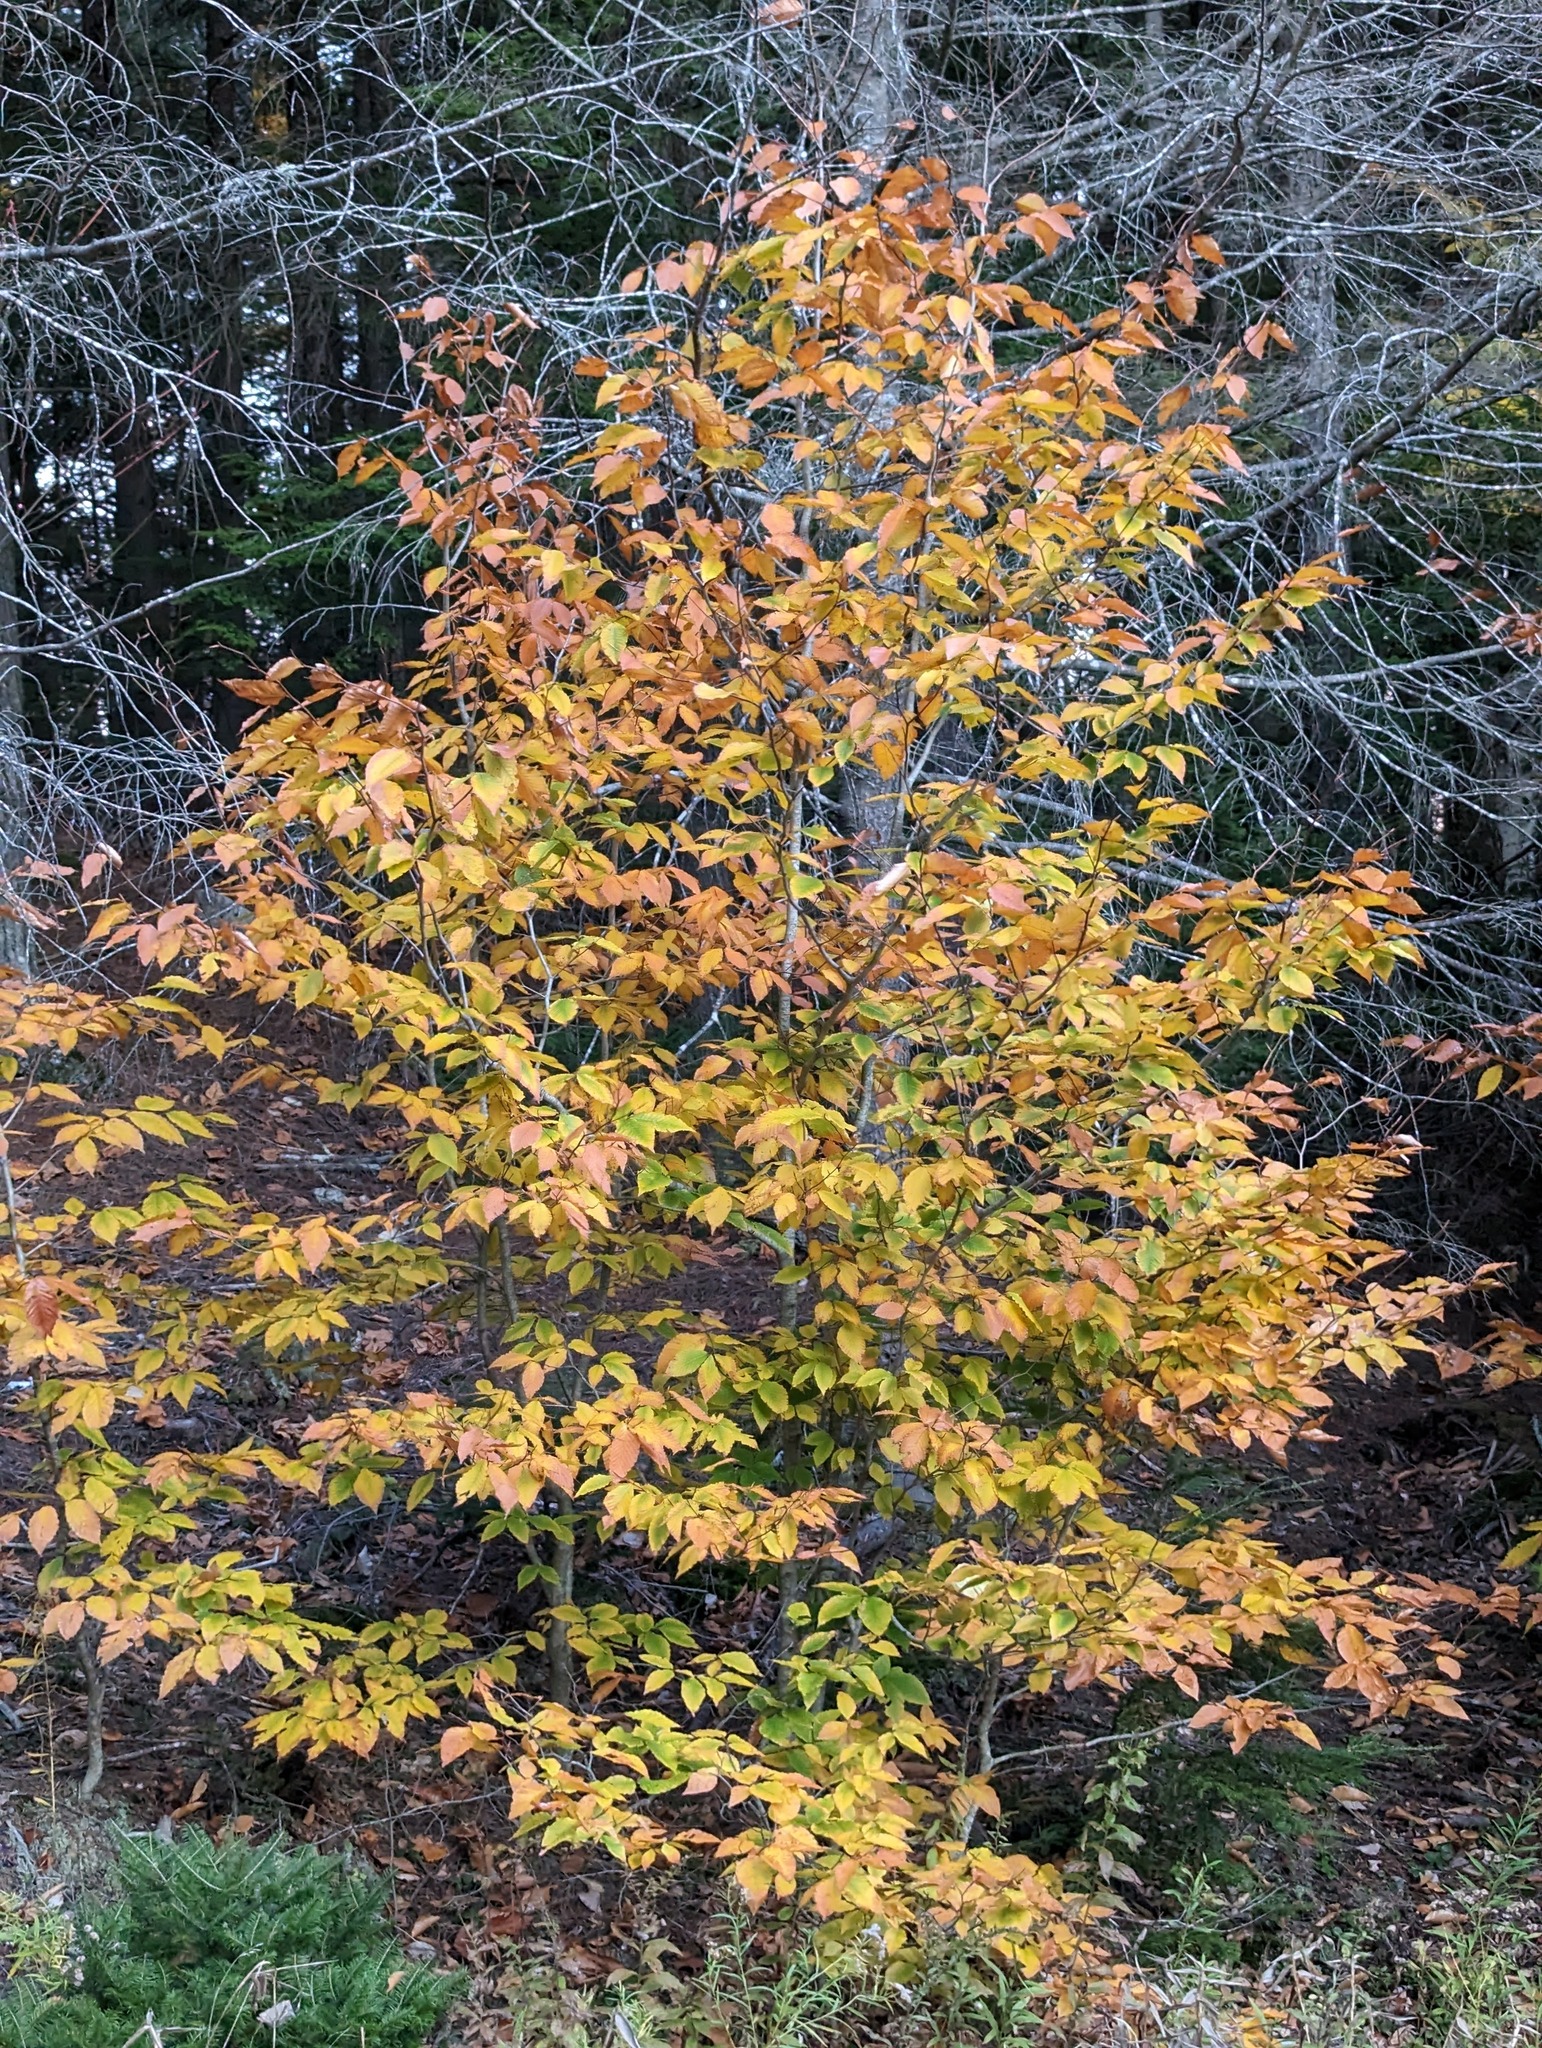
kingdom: Plantae
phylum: Tracheophyta
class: Magnoliopsida
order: Fagales
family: Fagaceae
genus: Fagus
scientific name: Fagus grandifolia
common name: American beech
